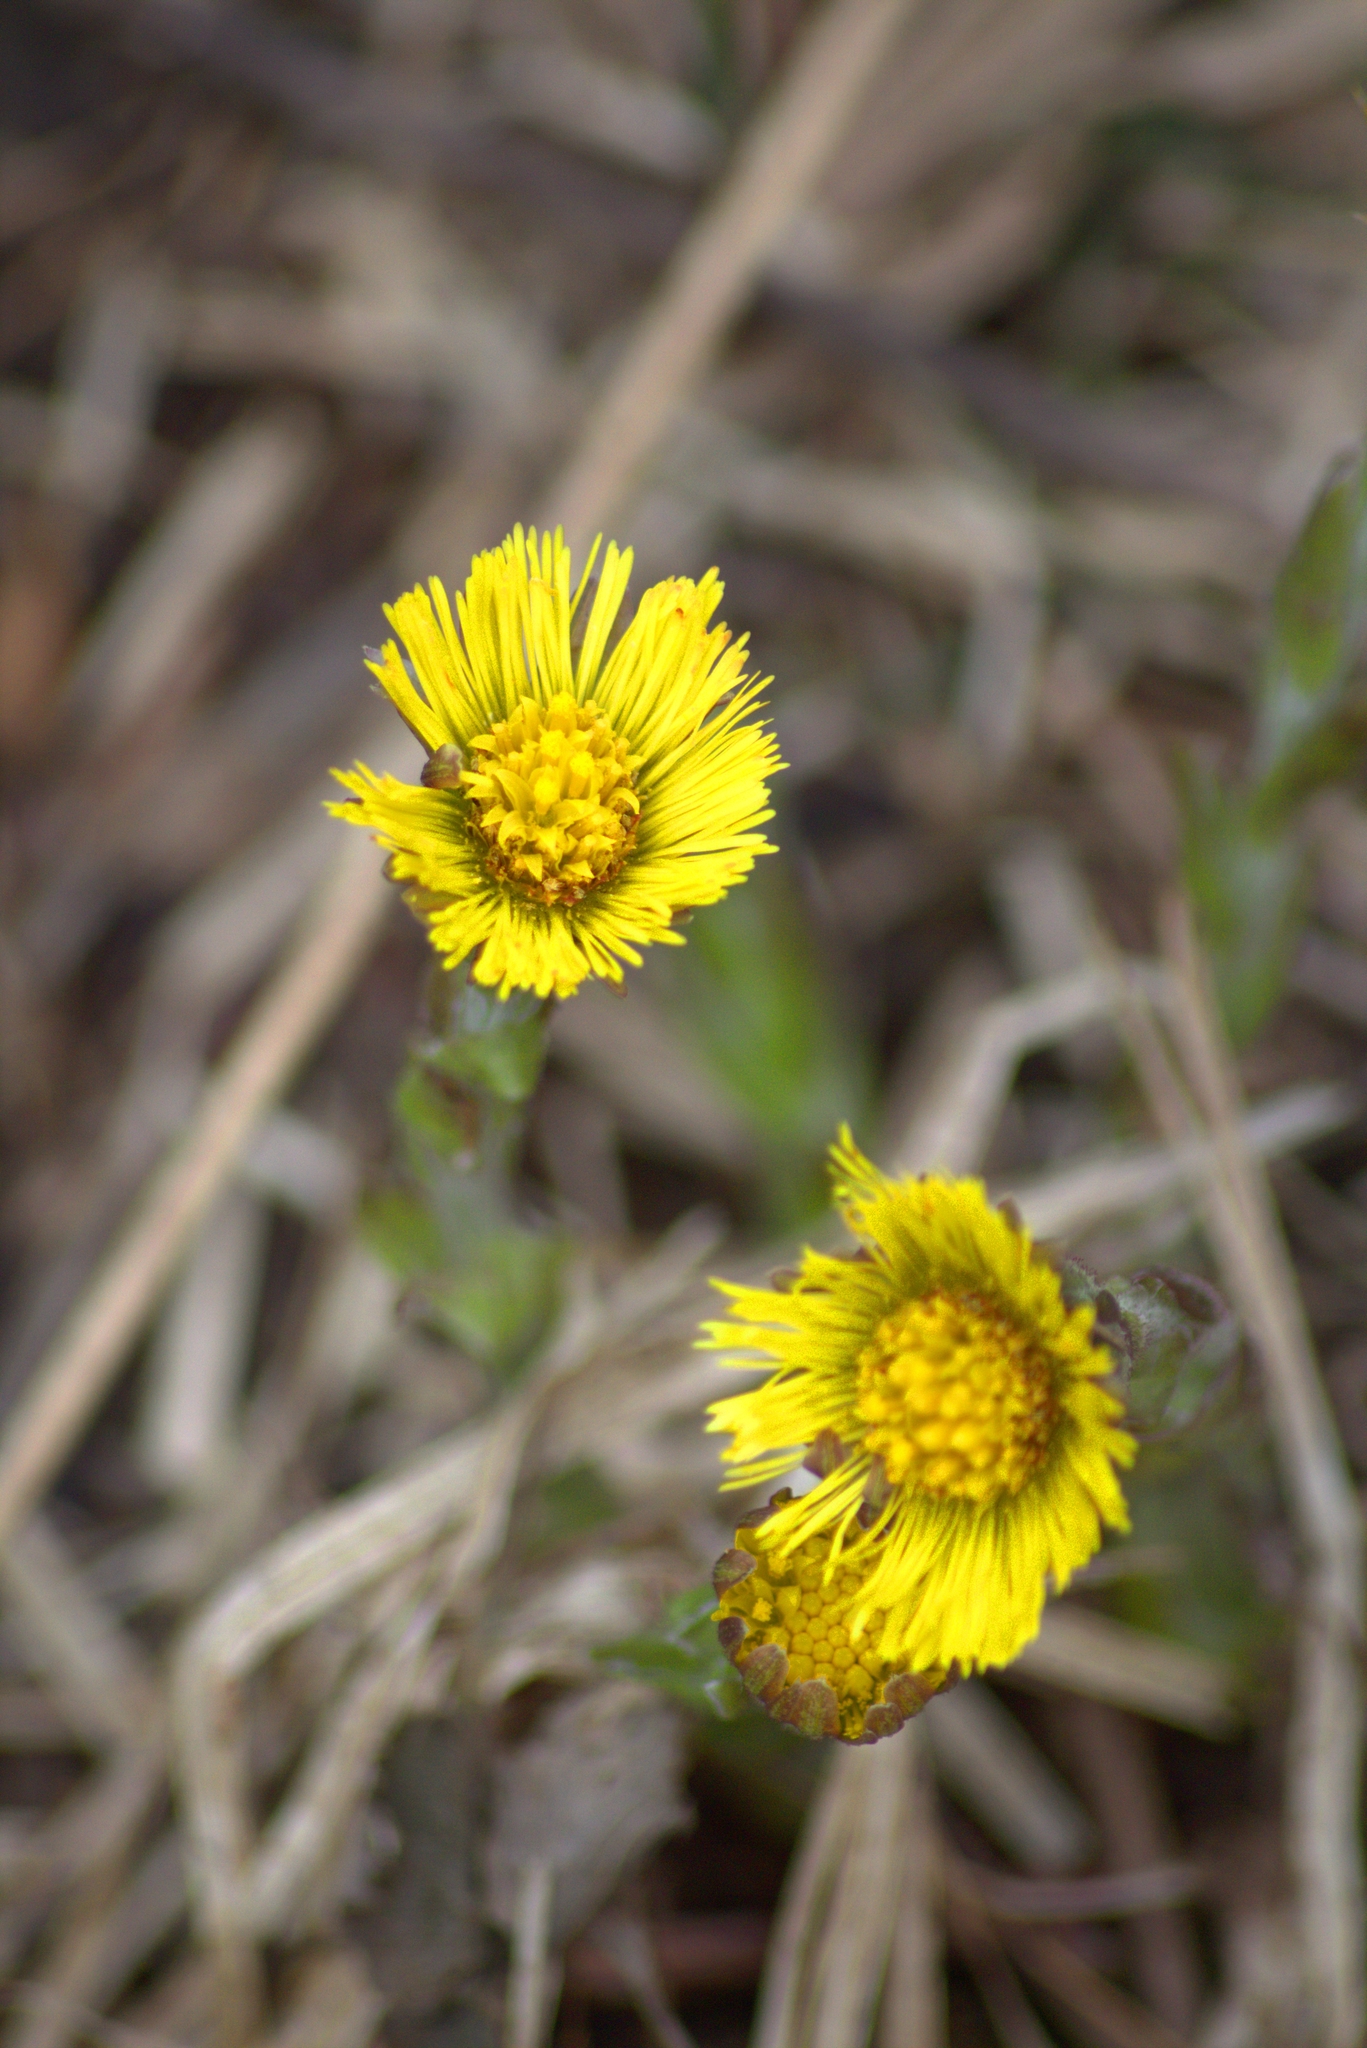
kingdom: Plantae
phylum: Tracheophyta
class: Magnoliopsida
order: Asterales
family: Asteraceae
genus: Tussilago
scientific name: Tussilago farfara
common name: Coltsfoot
